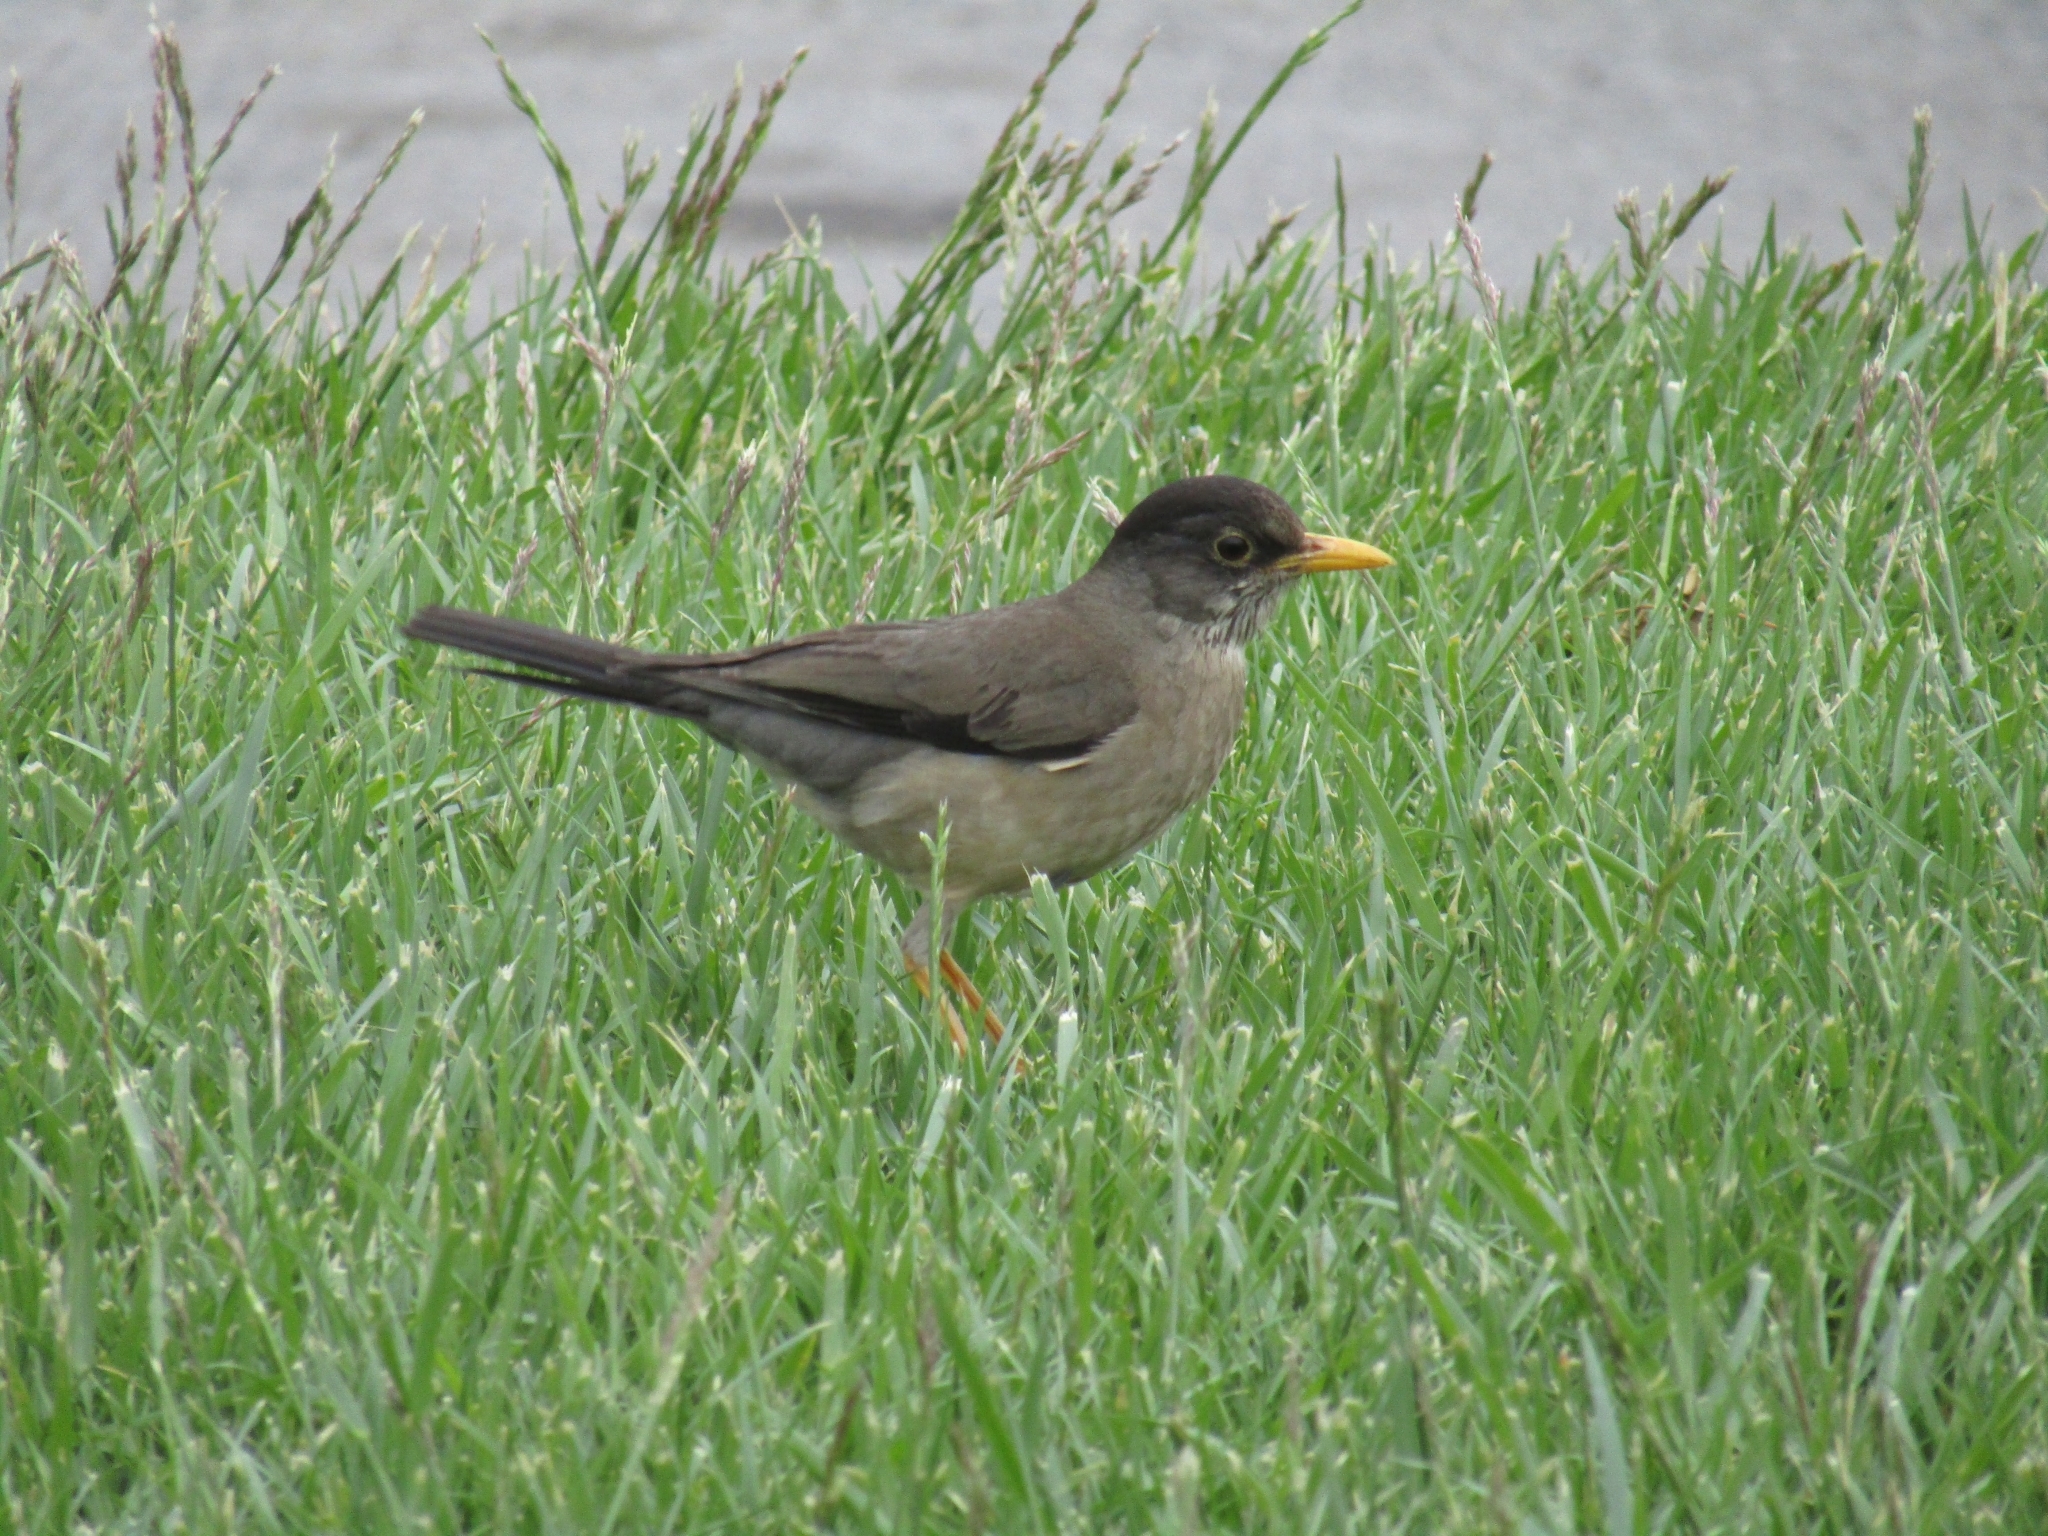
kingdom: Animalia
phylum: Chordata
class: Aves
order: Passeriformes
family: Turdidae
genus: Turdus
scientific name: Turdus falcklandii
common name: Austral thrush
